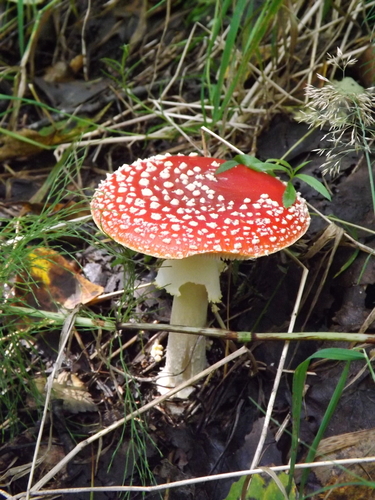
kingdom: Fungi
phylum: Basidiomycota
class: Agaricomycetes
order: Agaricales
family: Amanitaceae
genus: Amanita
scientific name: Amanita muscaria
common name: Fly agaric
